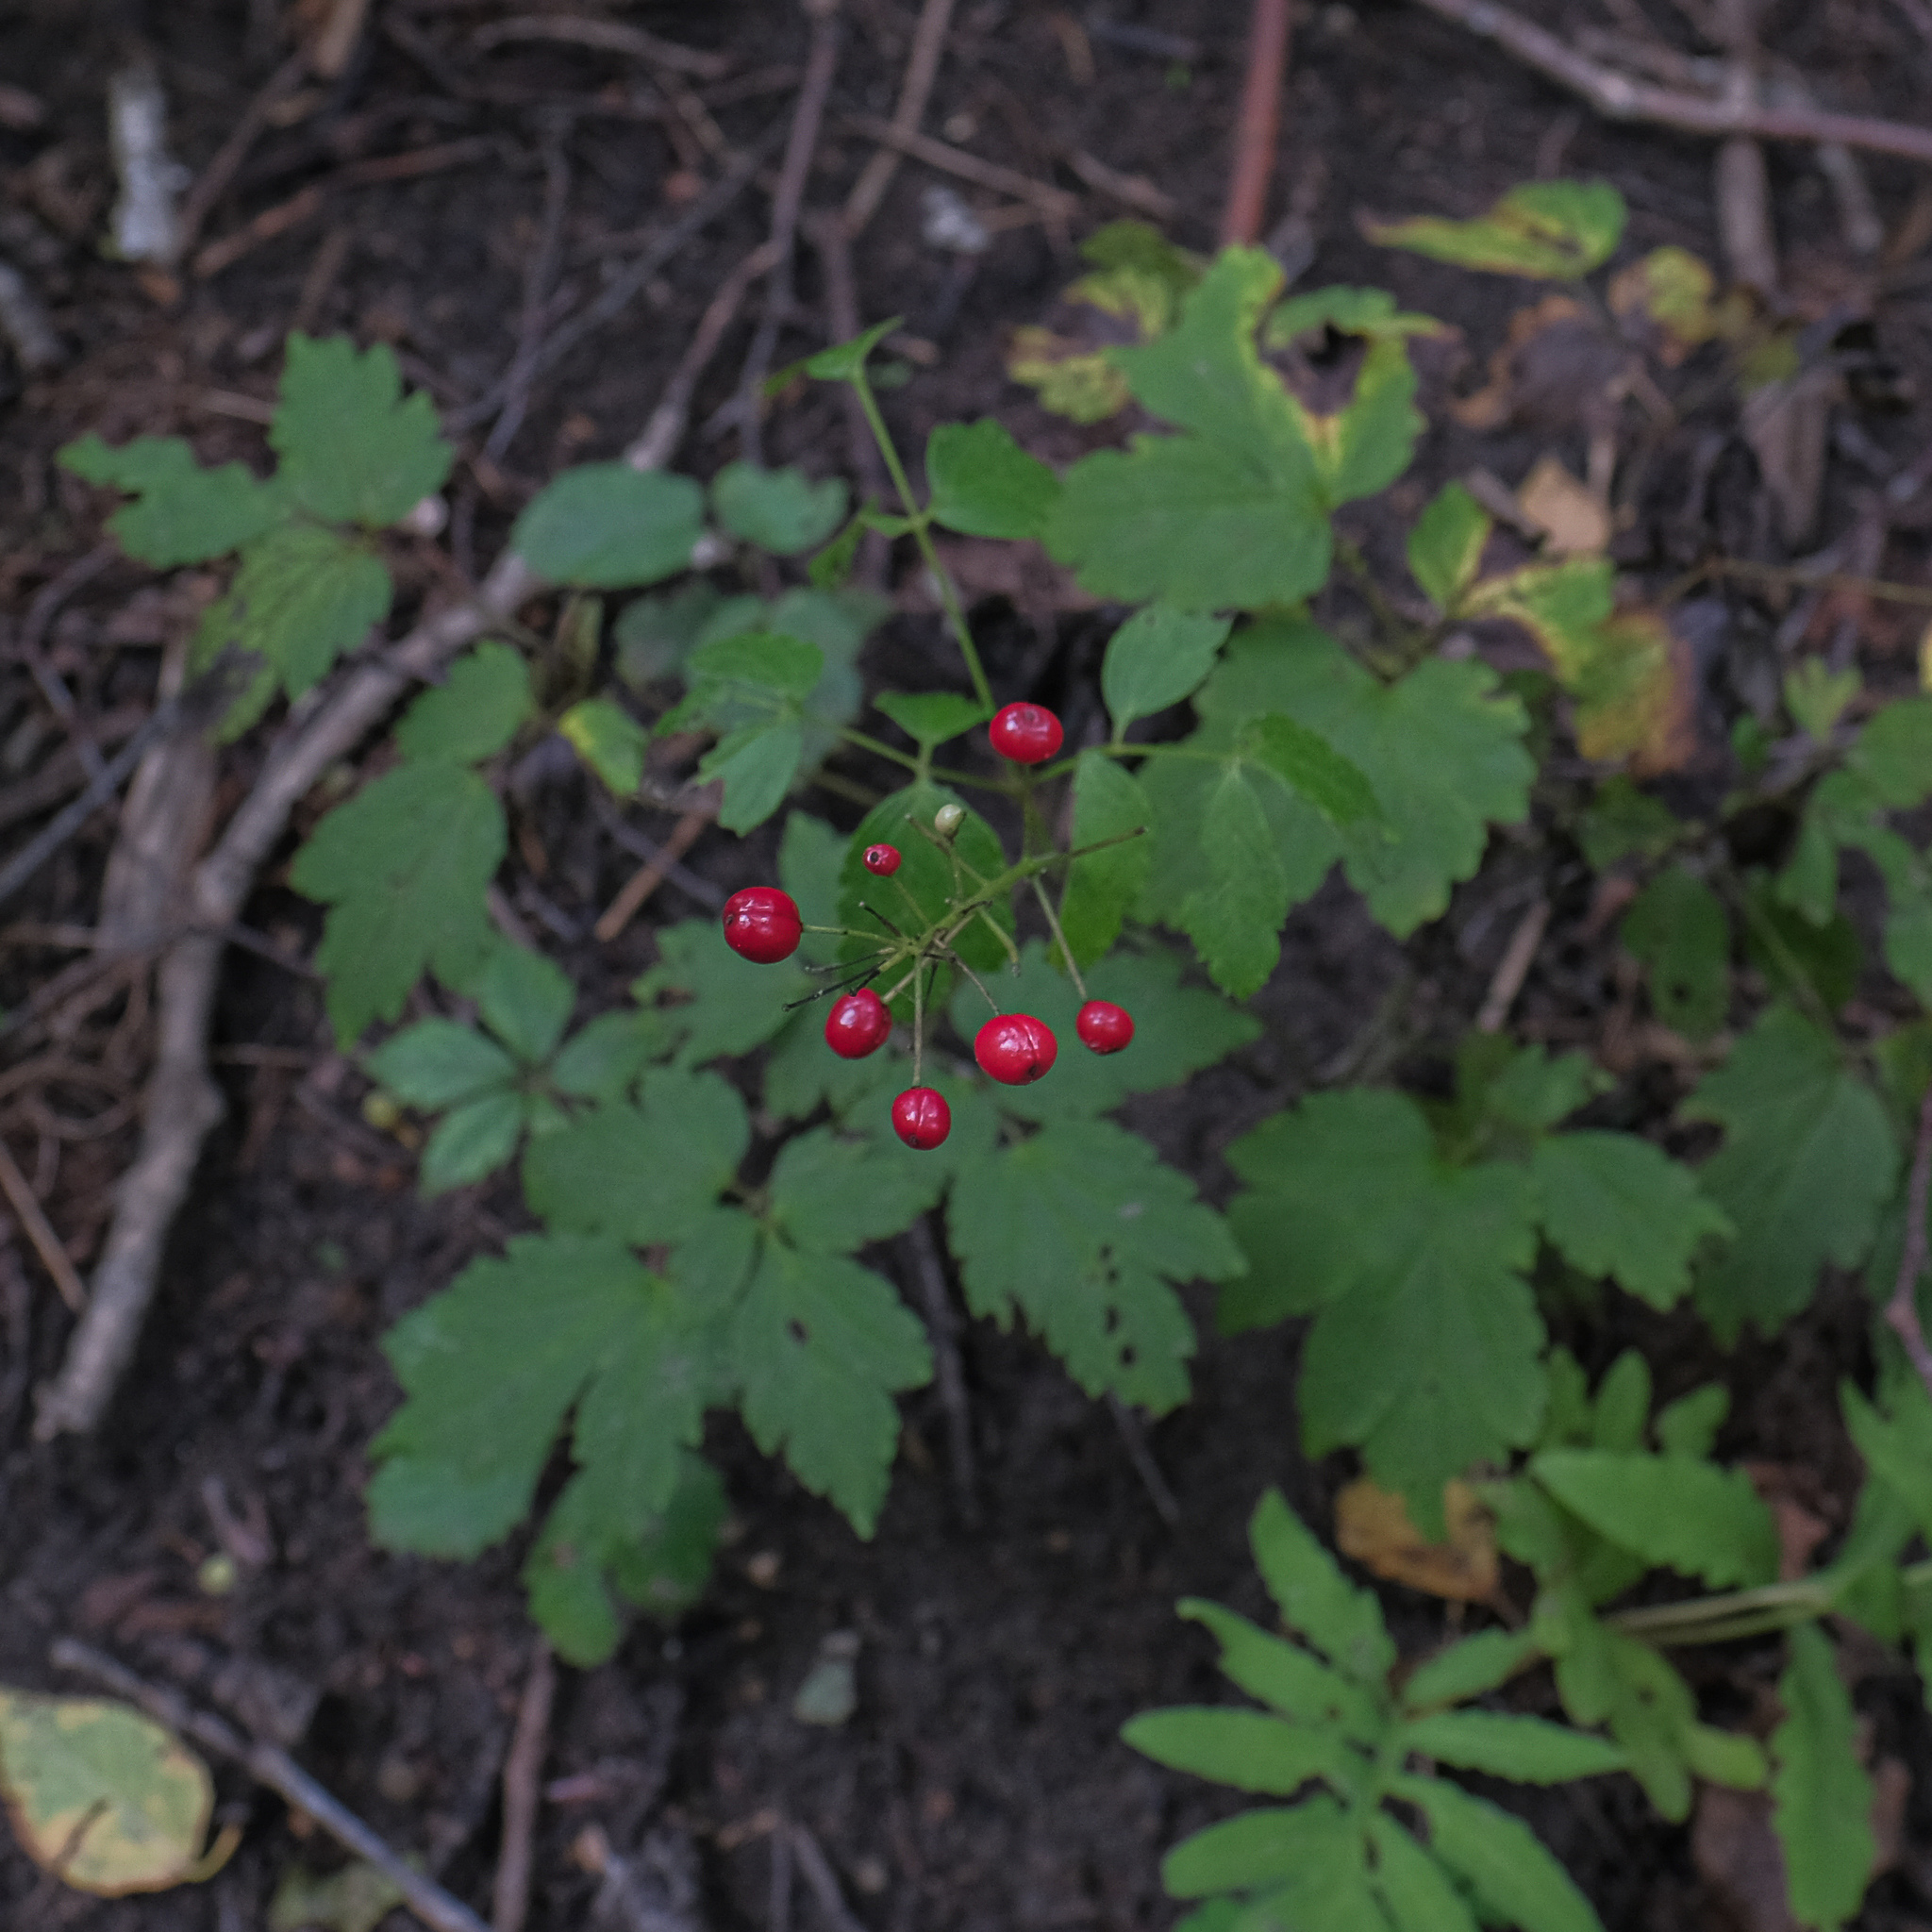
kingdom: Plantae
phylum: Tracheophyta
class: Magnoliopsida
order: Ranunculales
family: Ranunculaceae
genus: Actaea
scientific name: Actaea rubra
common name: Red baneberry
